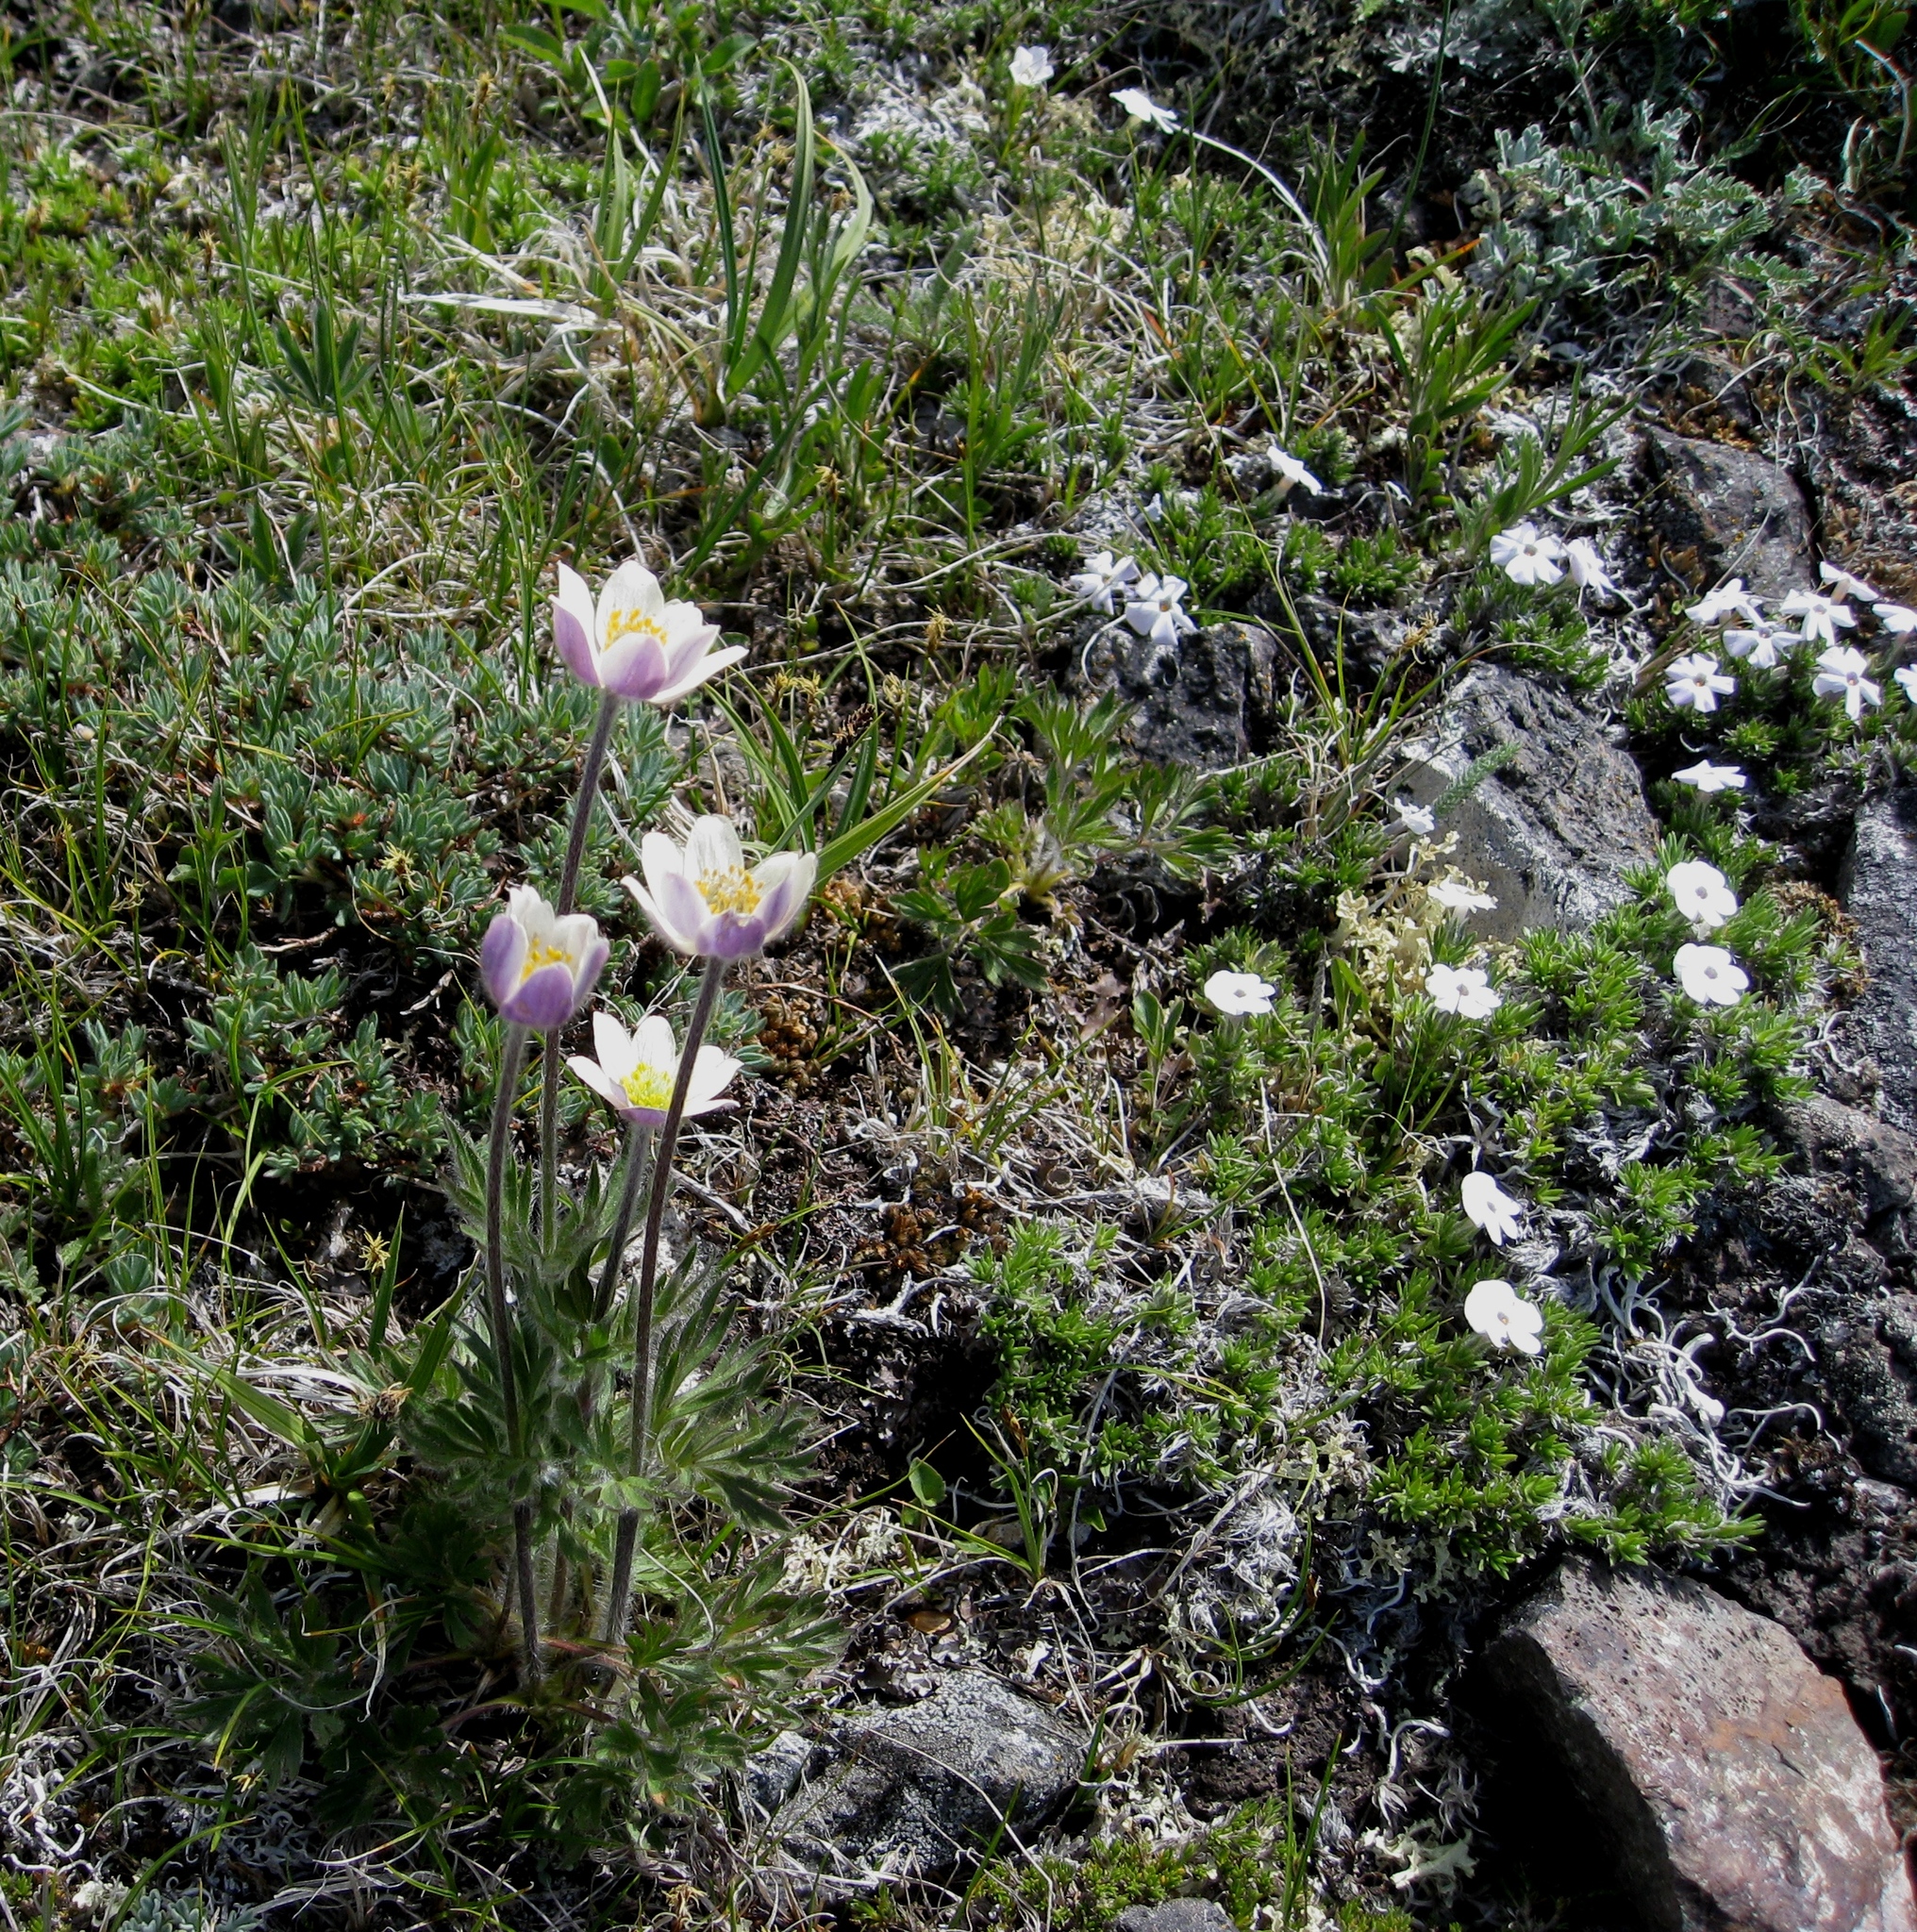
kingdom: Plantae
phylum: Tracheophyta
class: Magnoliopsida
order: Ranunculales
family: Ranunculaceae
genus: Anemone
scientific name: Anemone drummondii
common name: Drummond's anemone
